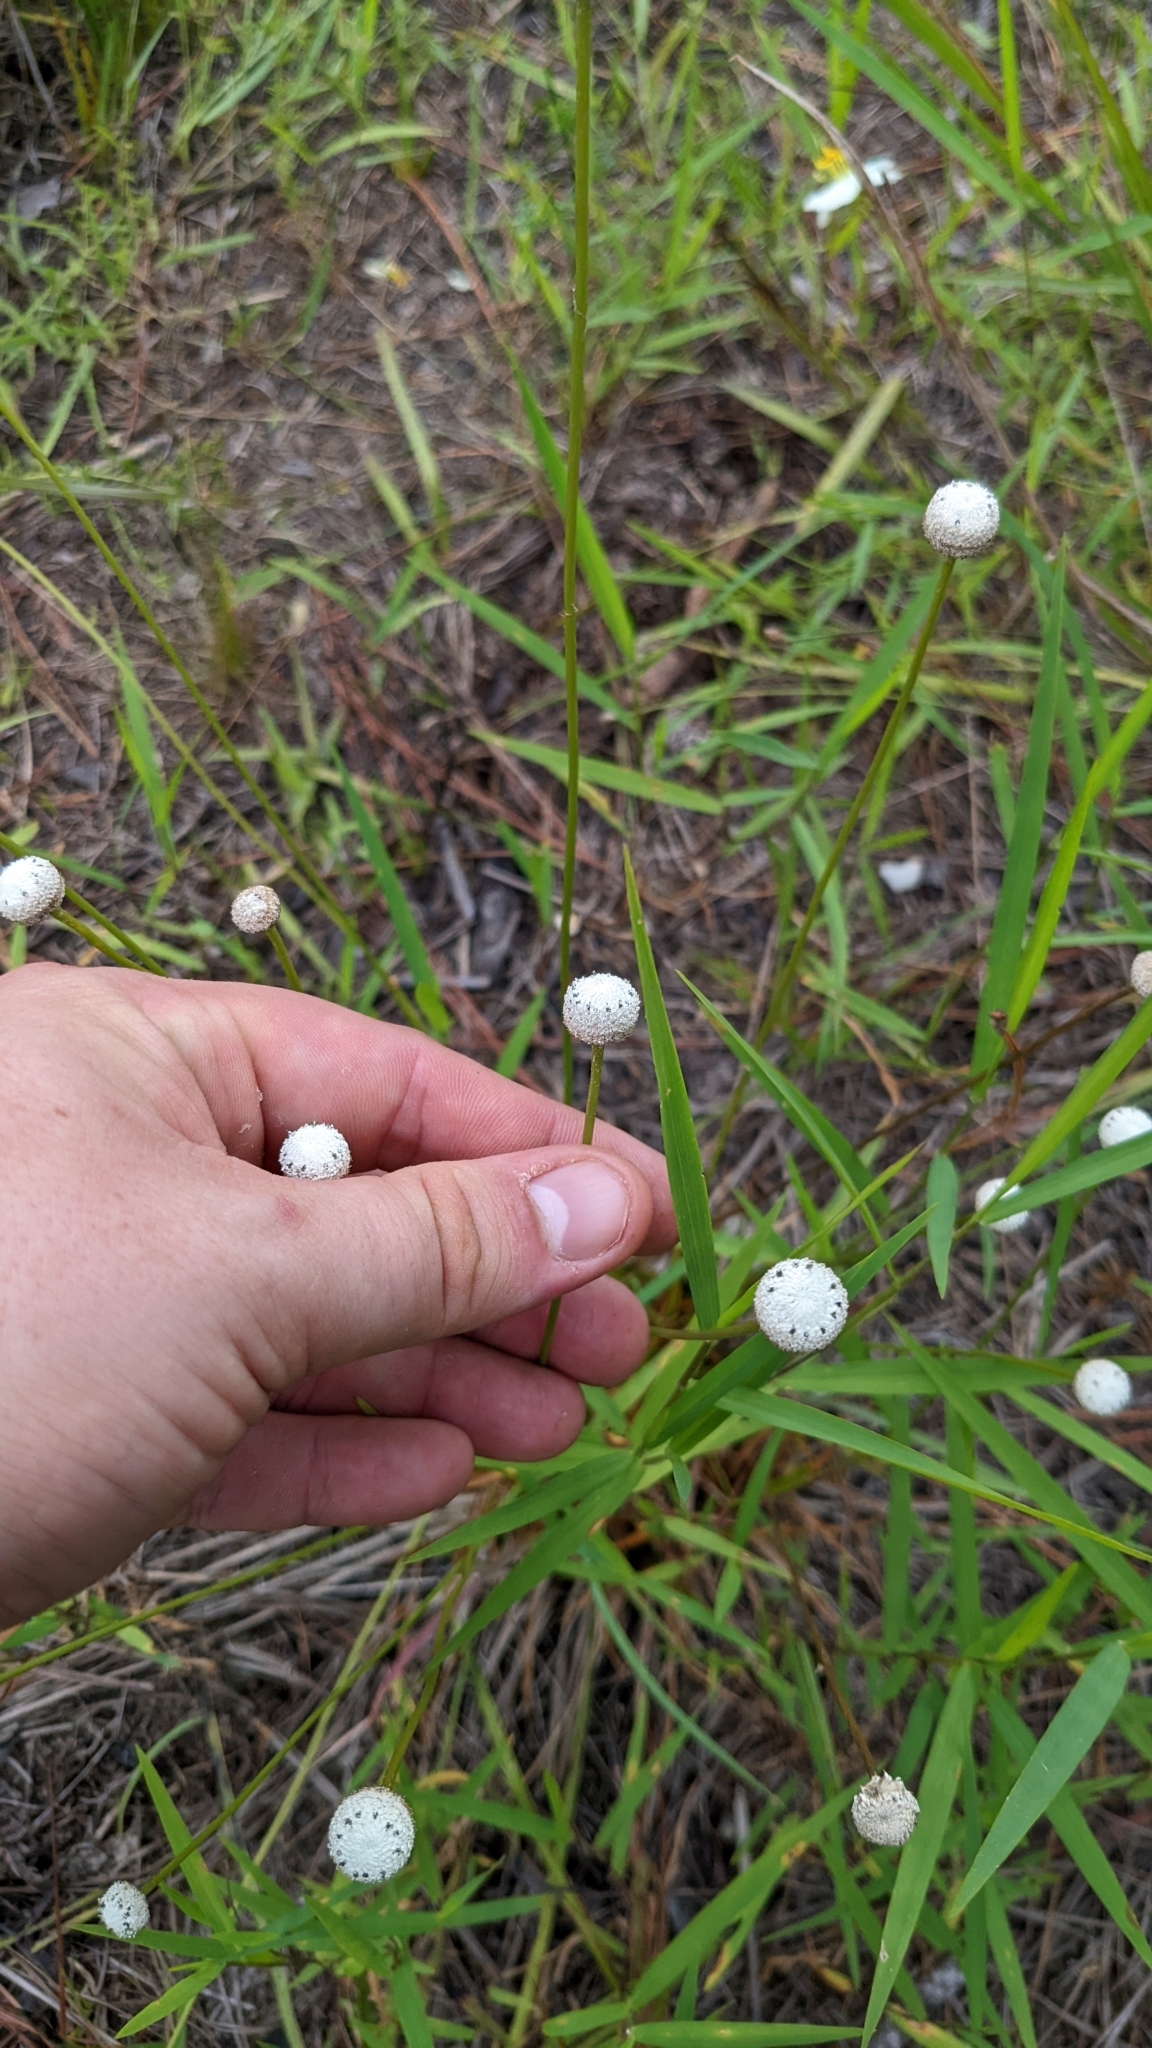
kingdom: Plantae
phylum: Tracheophyta
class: Liliopsida
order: Poales
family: Eriocaulaceae
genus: Eriocaulon
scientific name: Eriocaulon decangulare
